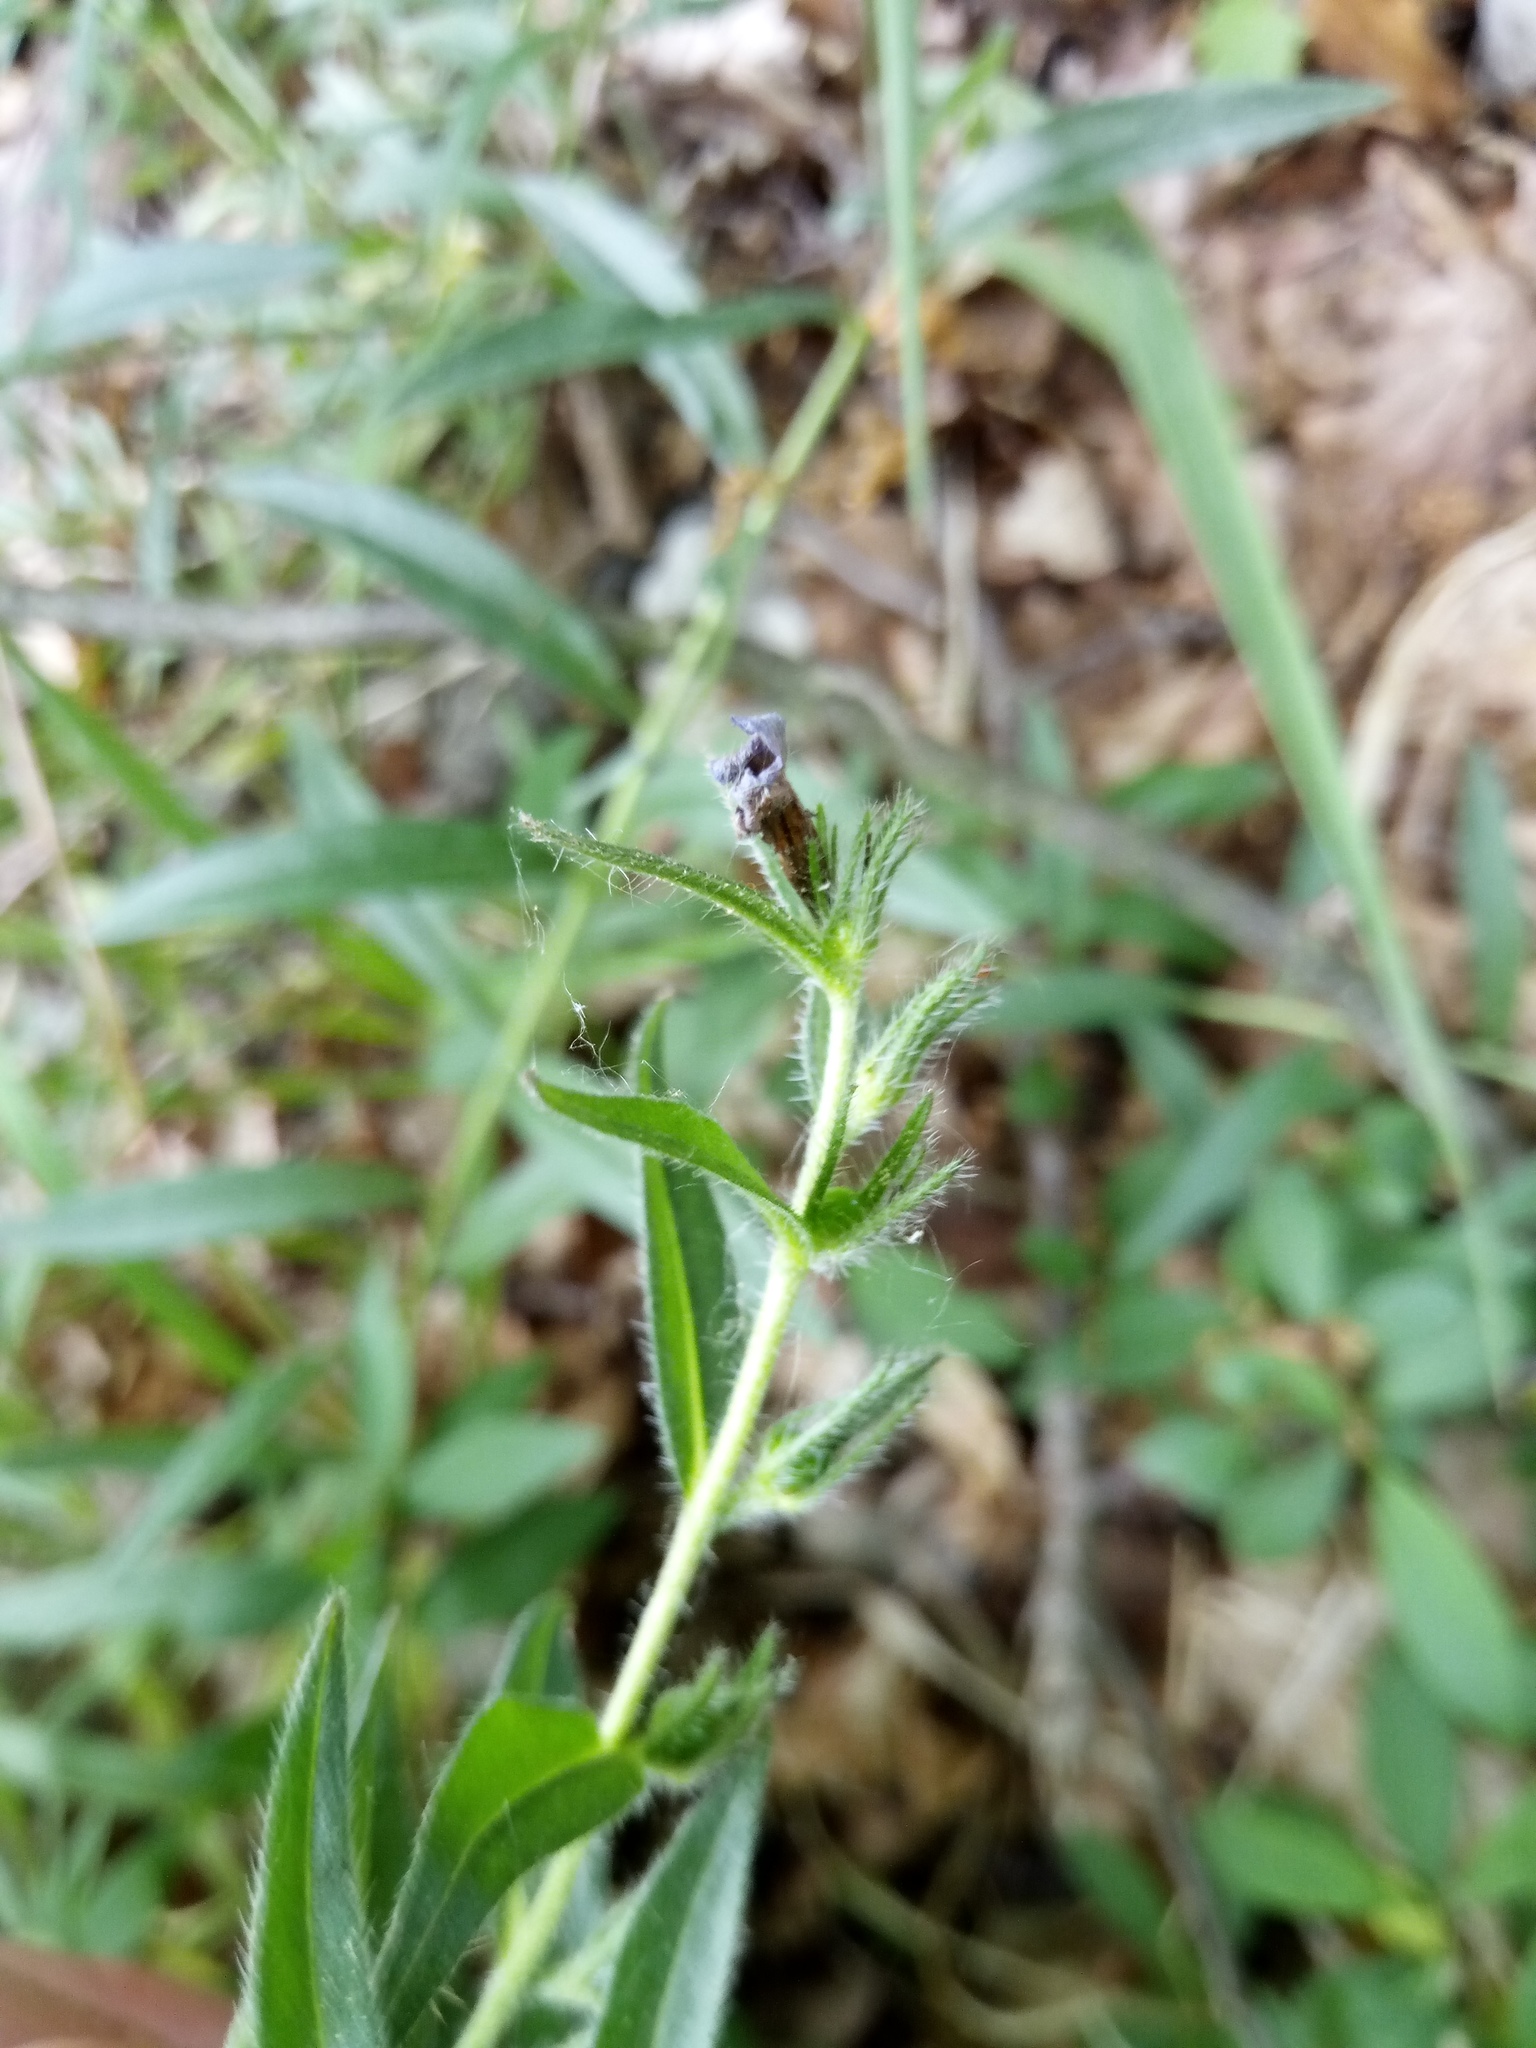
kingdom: Plantae
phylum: Tracheophyta
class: Magnoliopsida
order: Boraginales
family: Boraginaceae
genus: Aegonychon
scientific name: Aegonychon purpurocaeruleum
